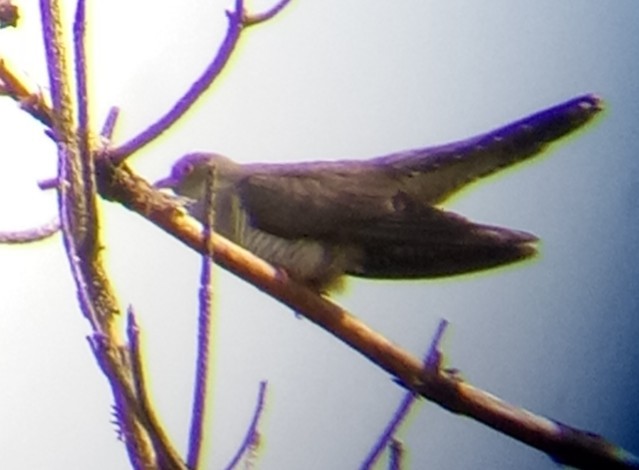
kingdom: Animalia
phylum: Chordata
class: Aves
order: Cuculiformes
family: Cuculidae
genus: Cuculus
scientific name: Cuculus canorus
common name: Common cuckoo
